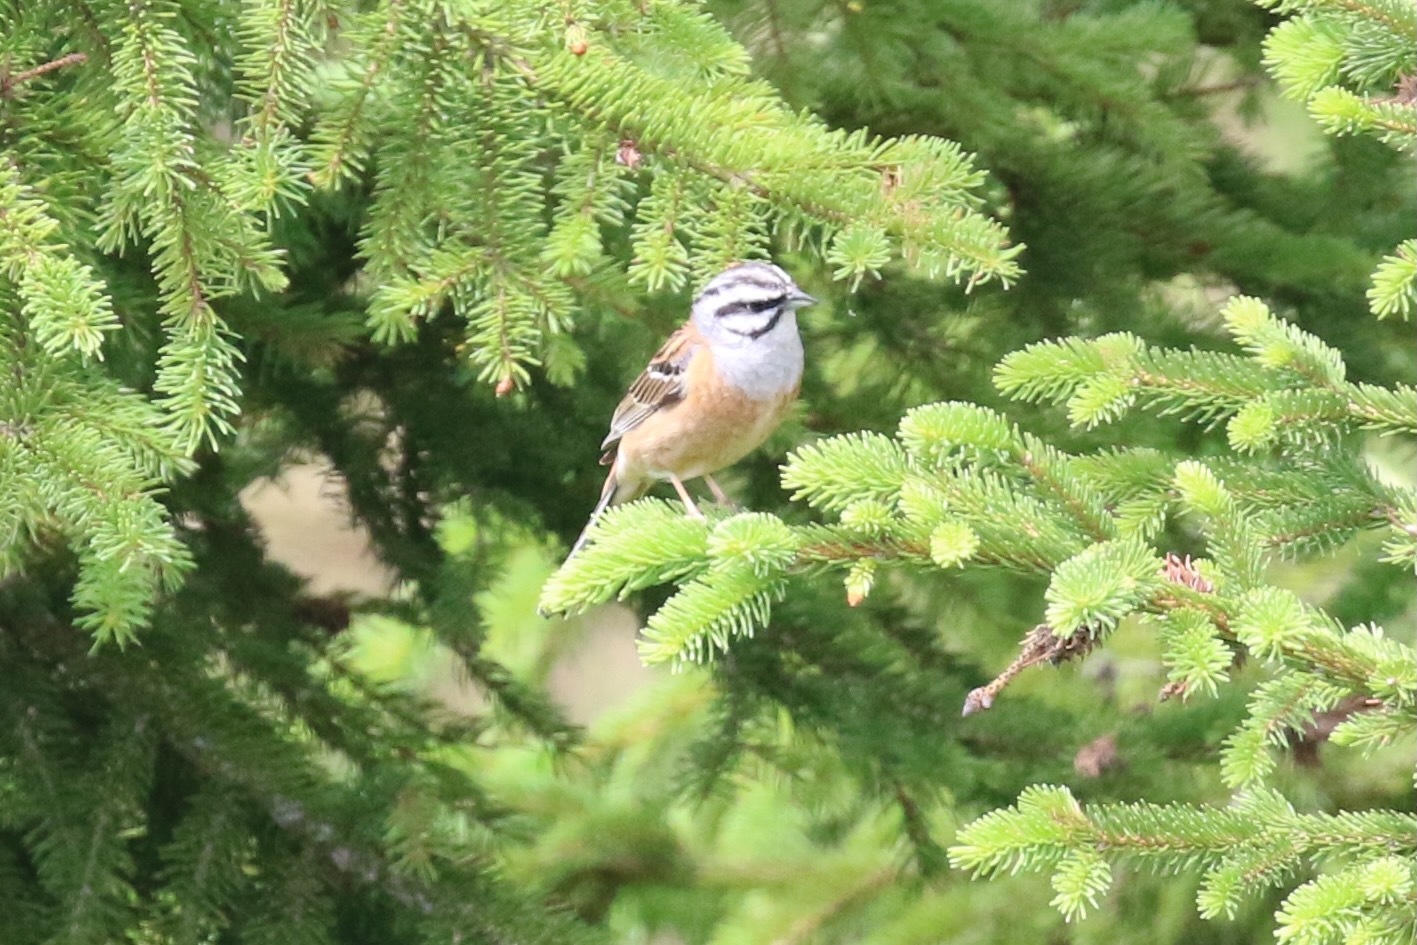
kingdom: Animalia
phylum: Chordata
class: Aves
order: Passeriformes
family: Emberizidae
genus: Emberiza
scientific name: Emberiza cia
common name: Rock bunting
